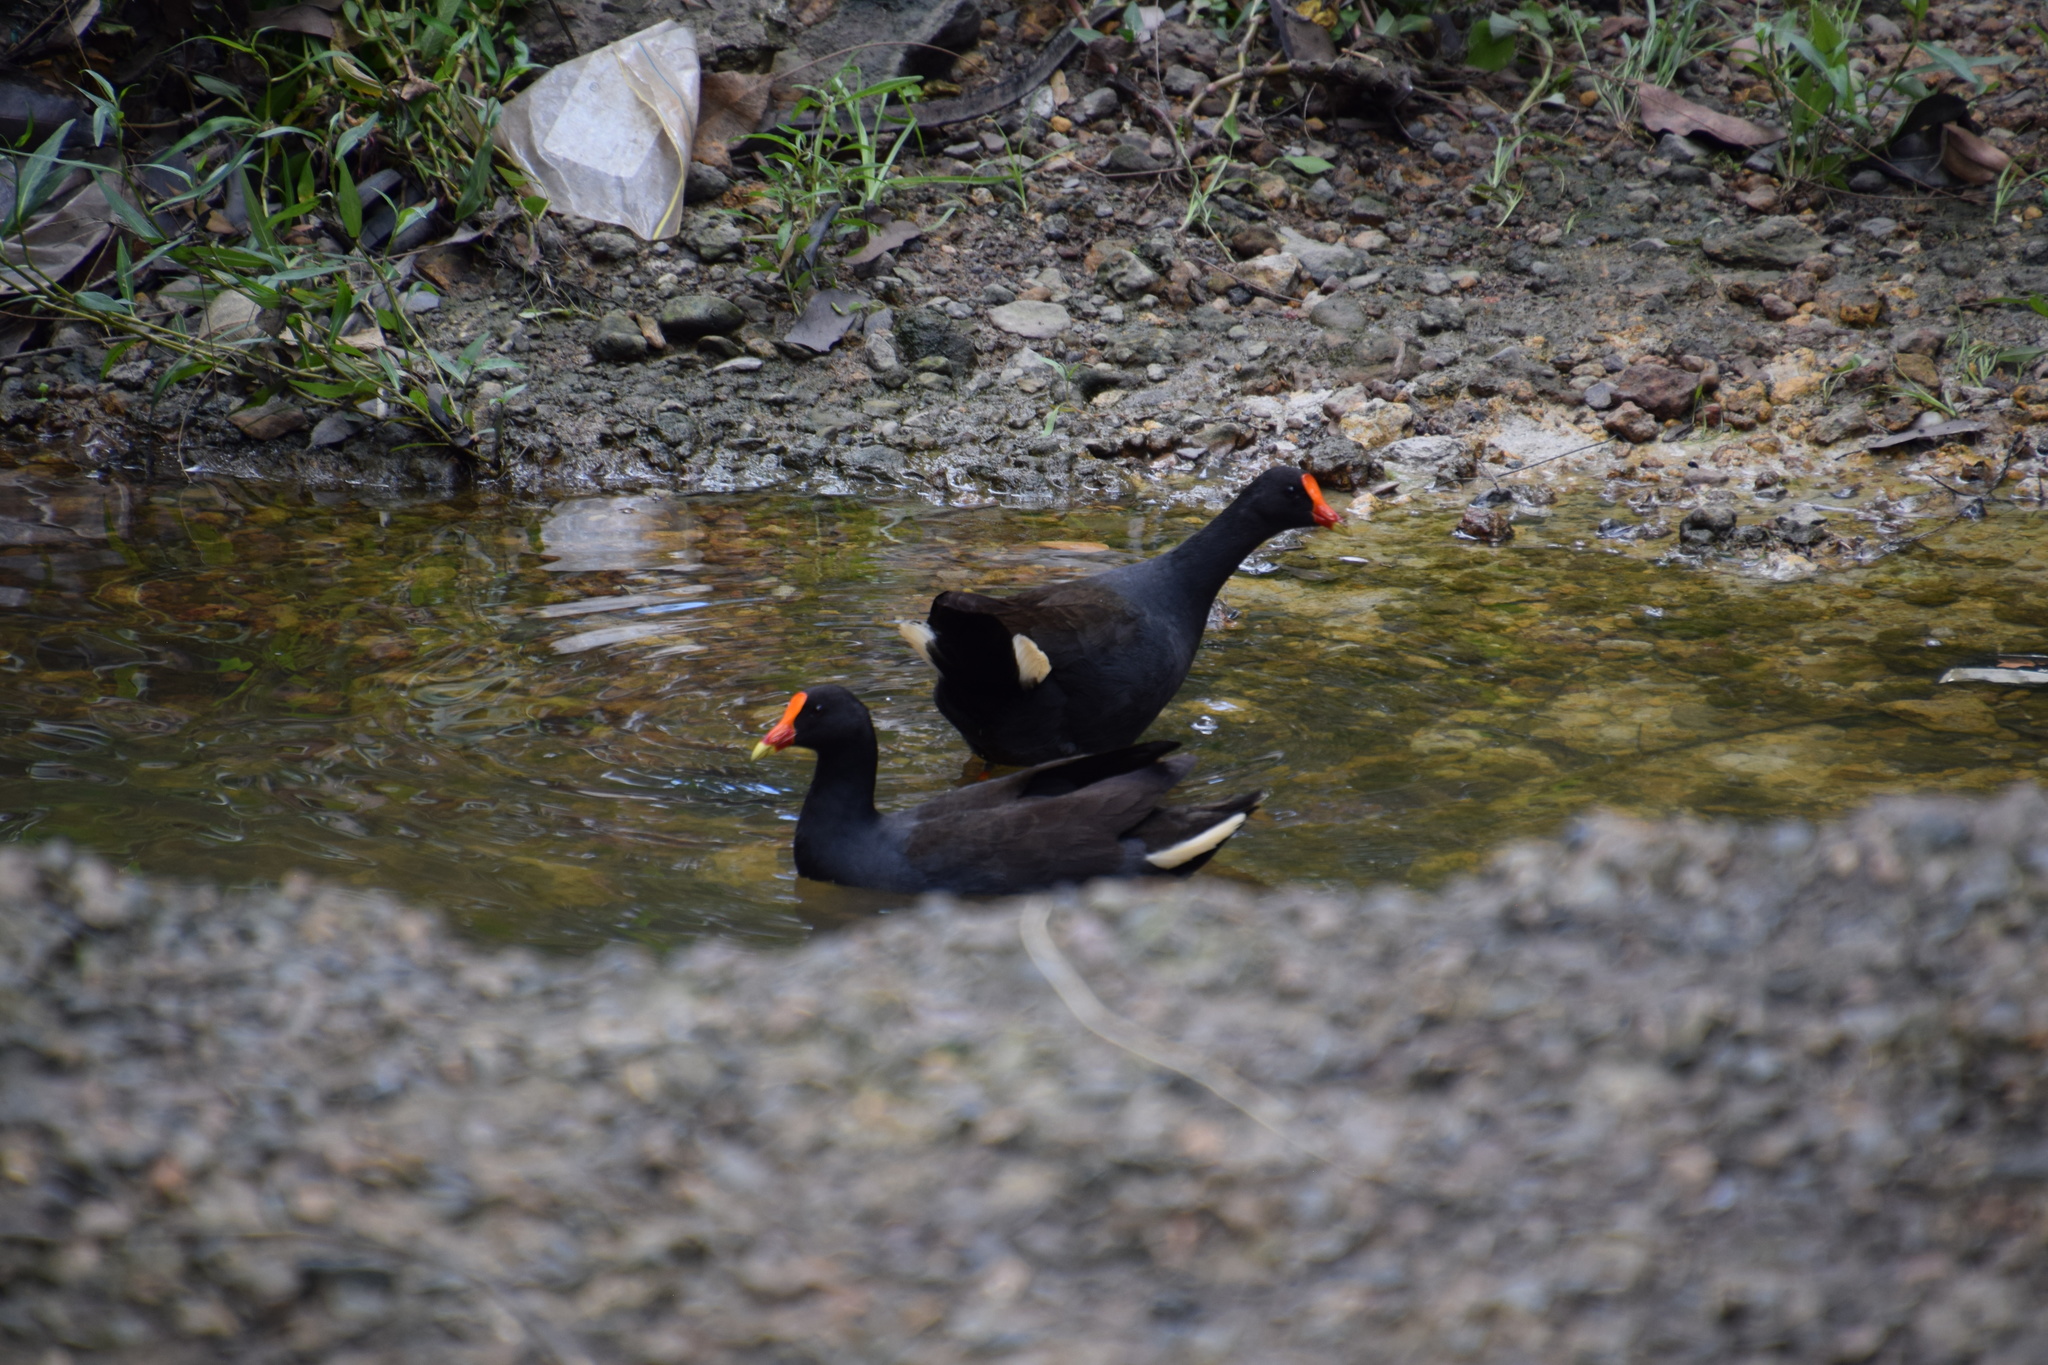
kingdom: Animalia
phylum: Chordata
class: Aves
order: Gruiformes
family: Rallidae
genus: Gallinula
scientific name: Gallinula tenebrosa
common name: Dusky moorhen
